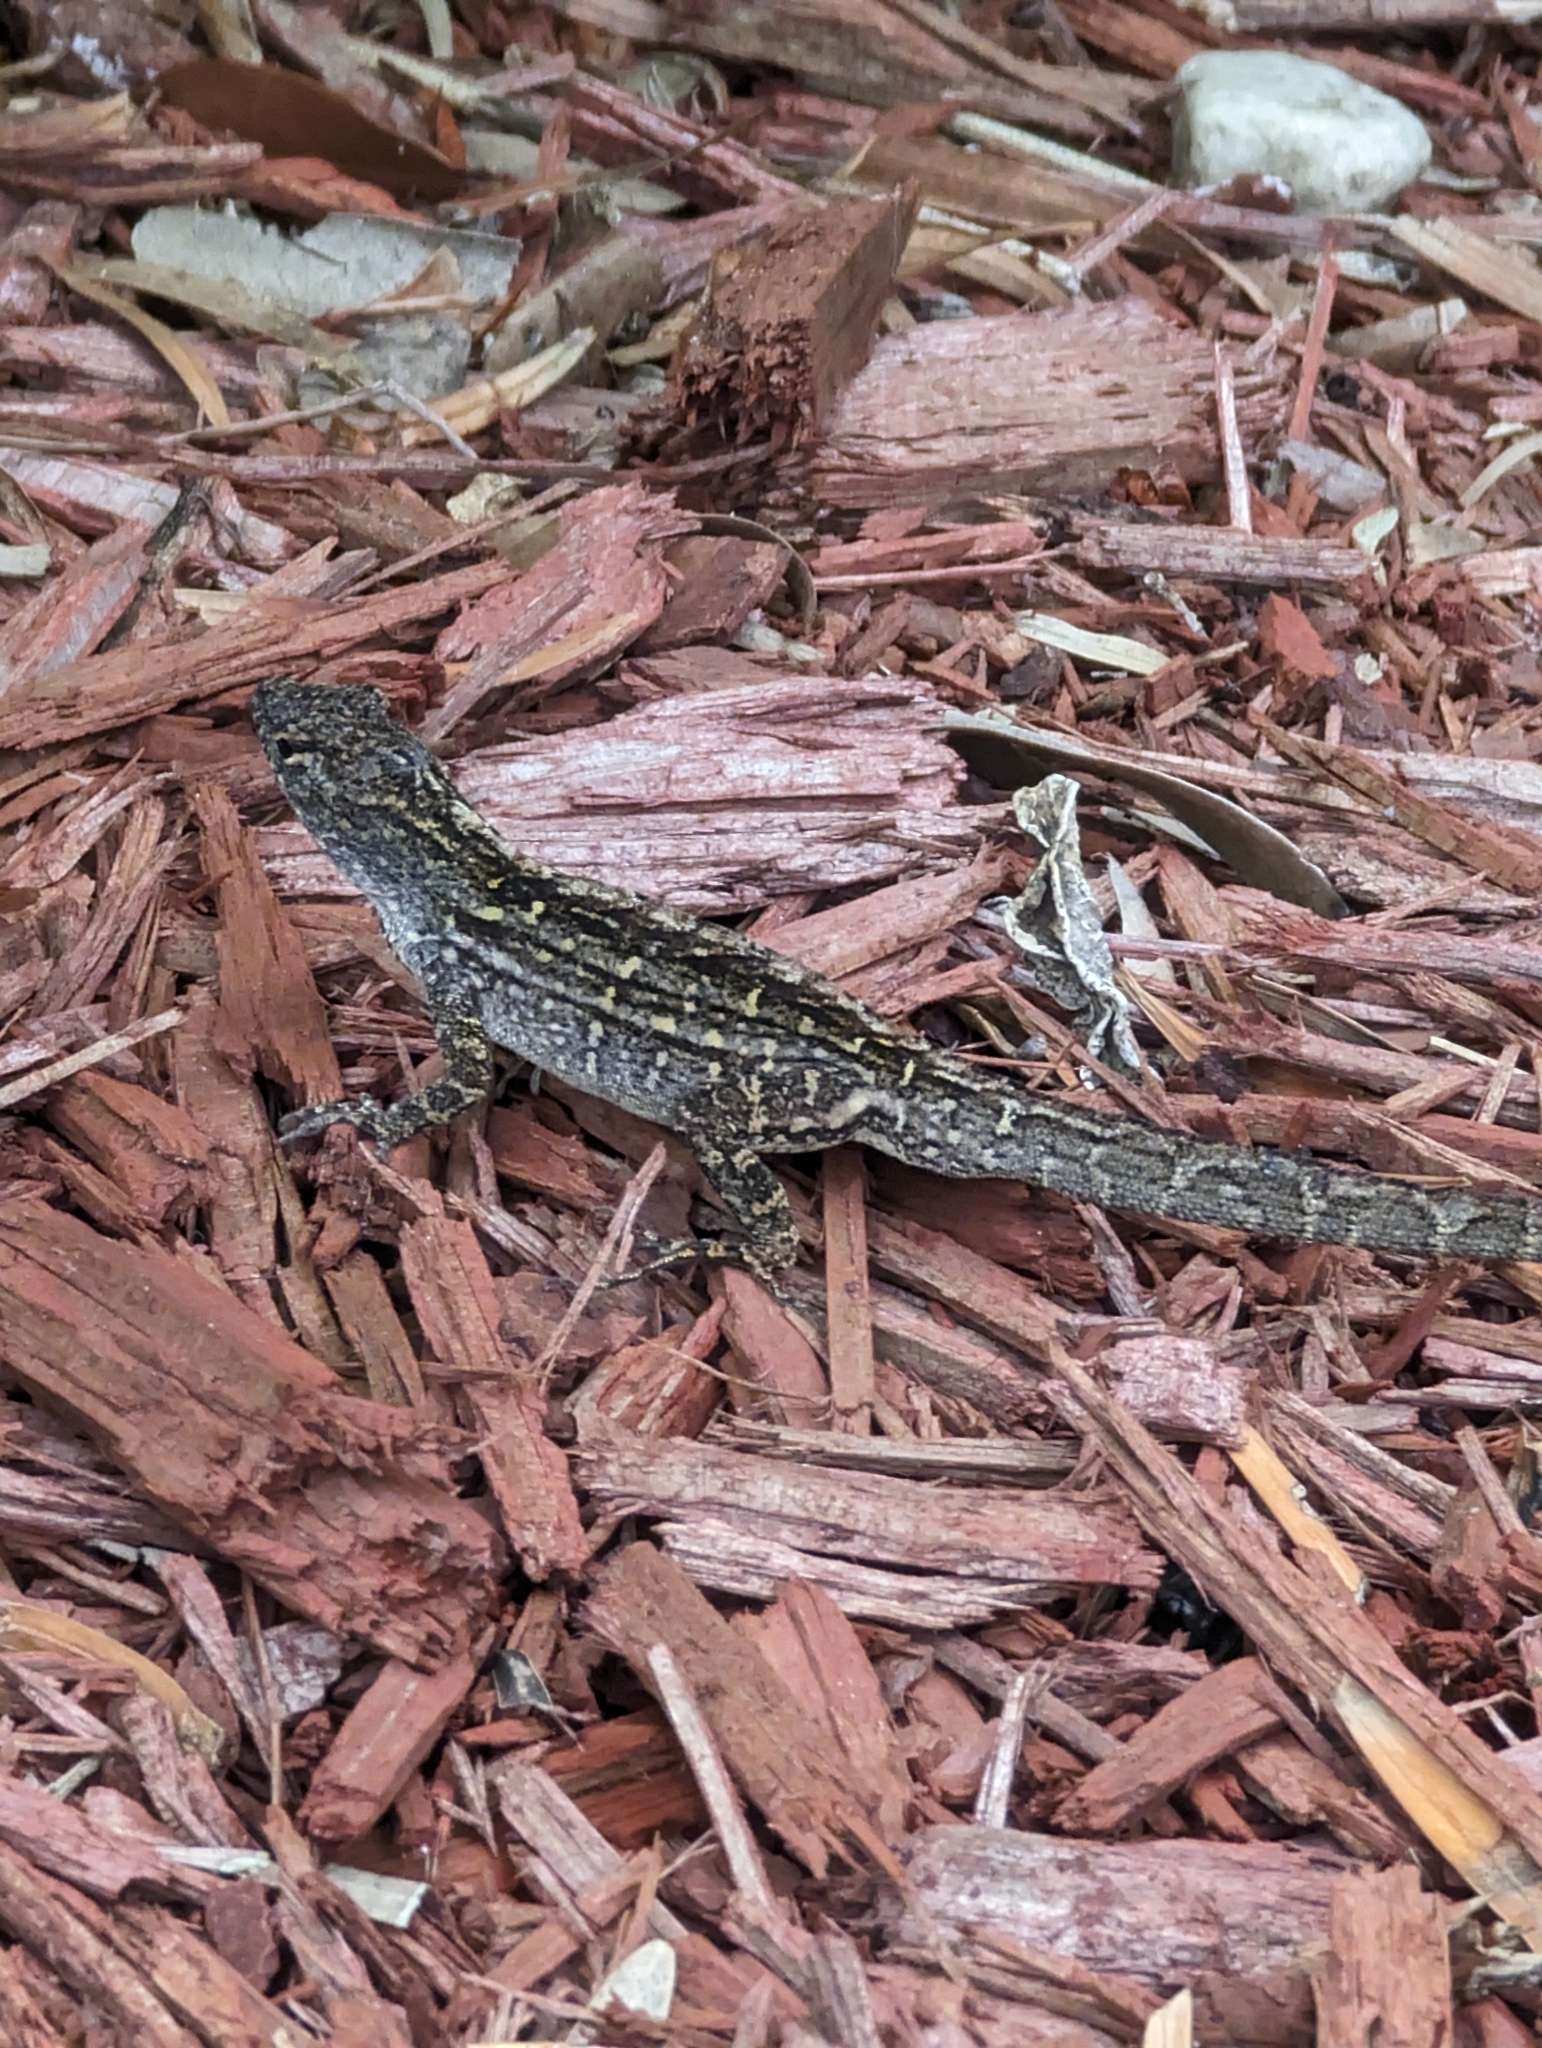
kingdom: Animalia
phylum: Chordata
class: Squamata
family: Dactyloidae
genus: Anolis
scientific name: Anolis sagrei
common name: Brown anole
